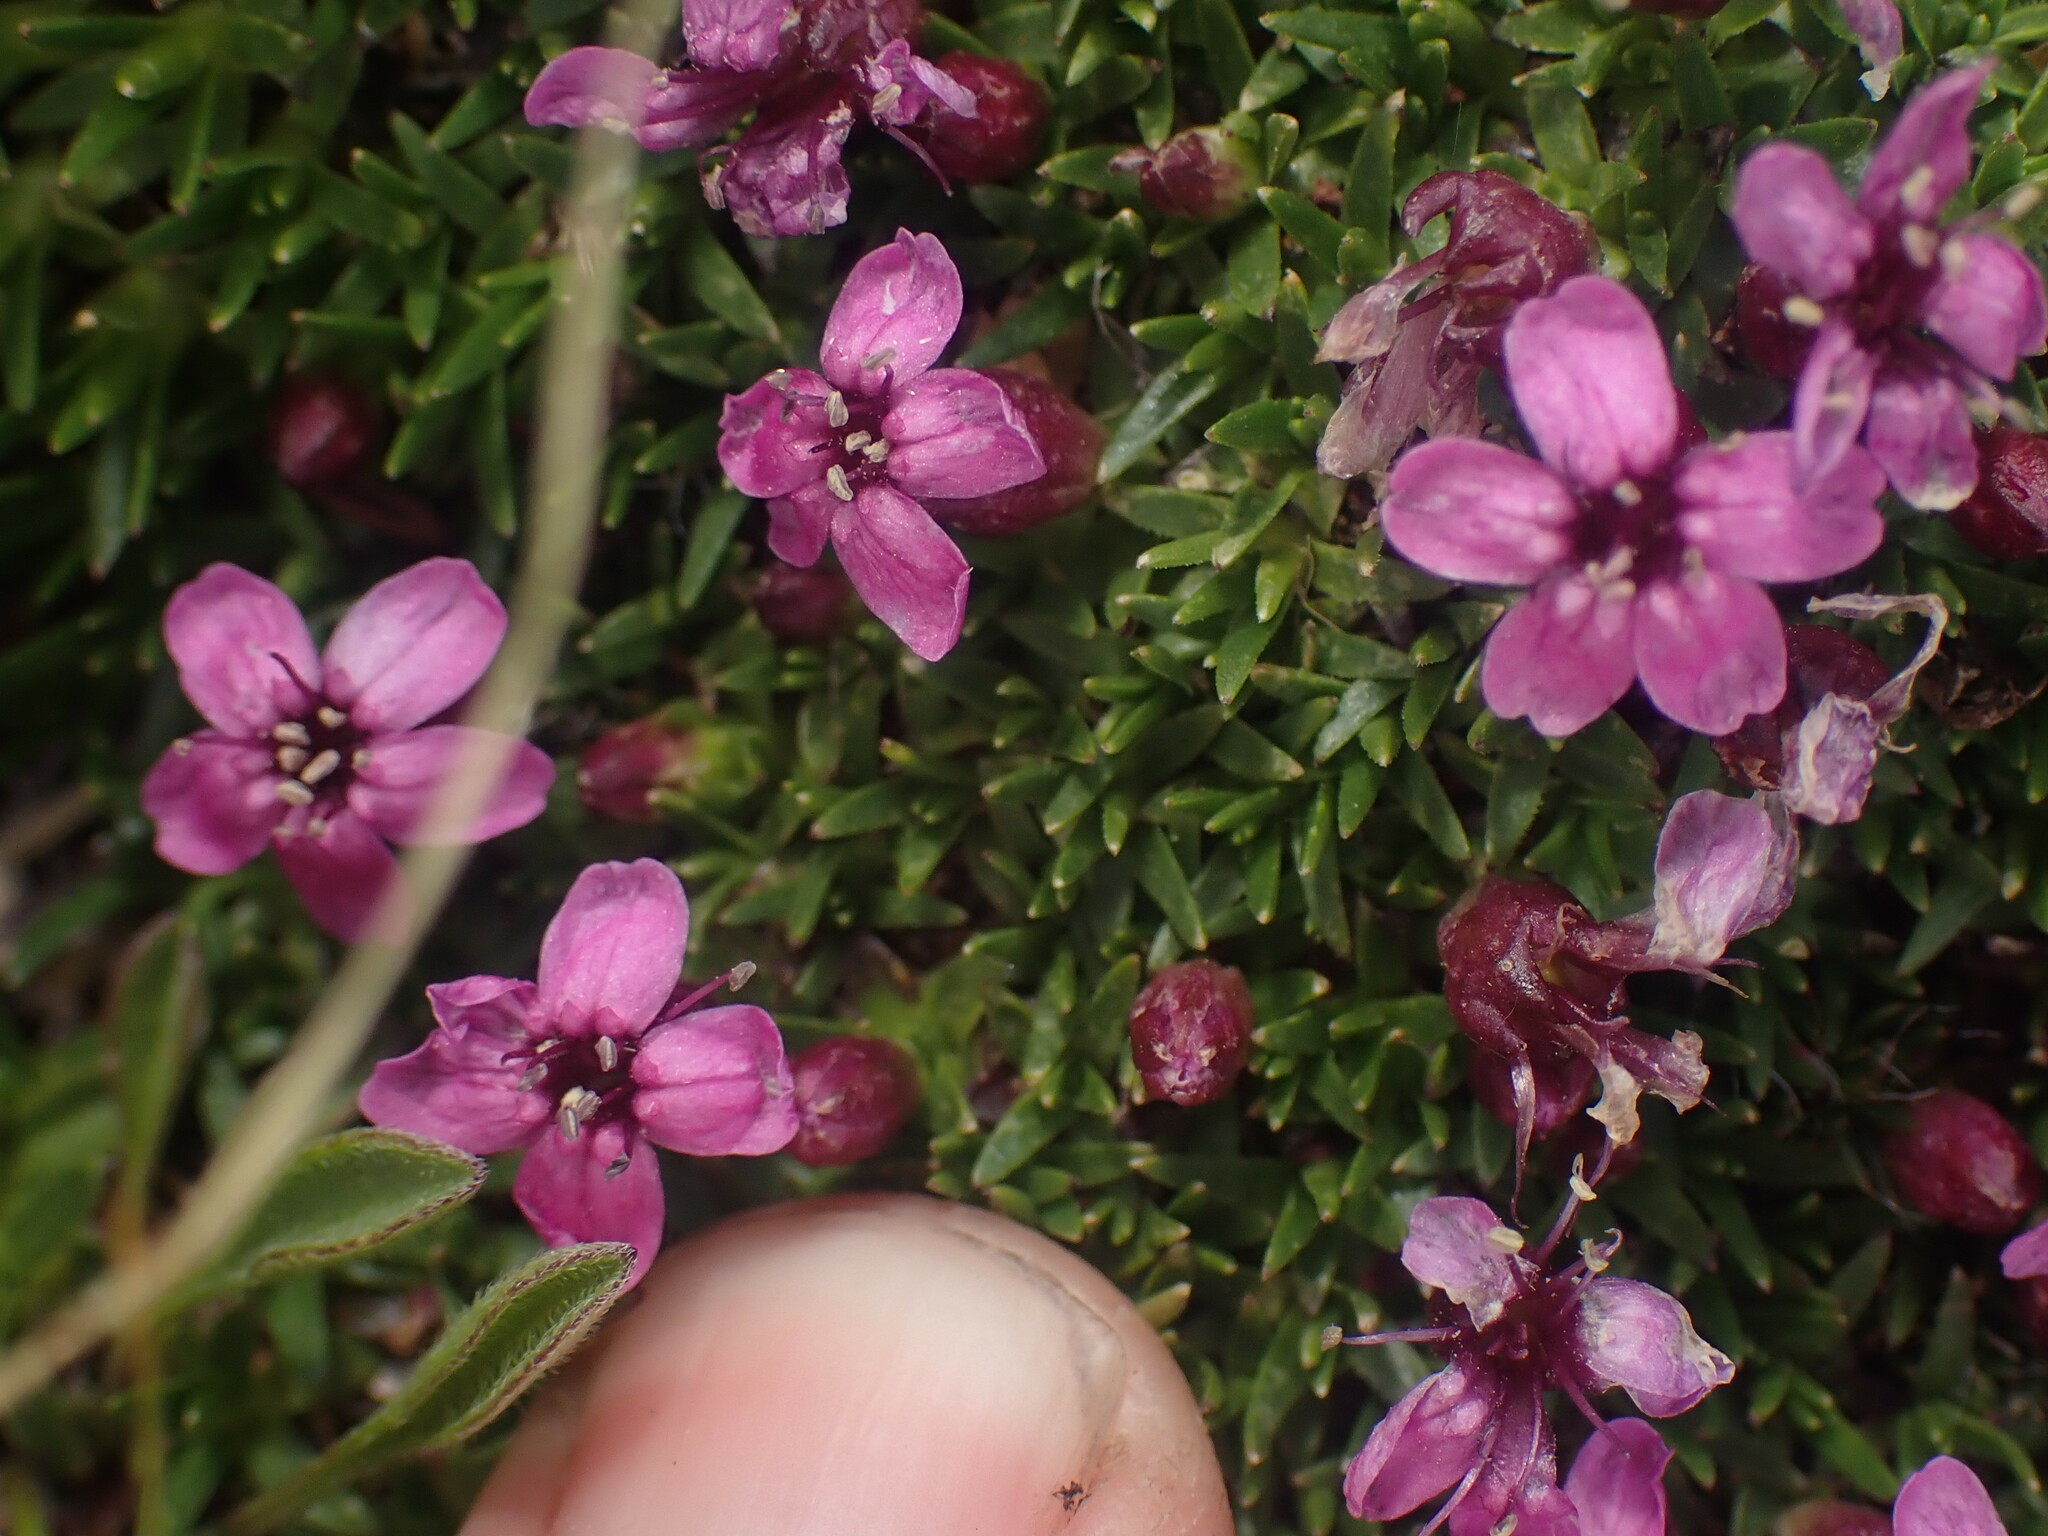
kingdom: Plantae
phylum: Tracheophyta
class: Magnoliopsida
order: Caryophyllales
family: Caryophyllaceae
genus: Silene
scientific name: Silene acaulis
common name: Moss campion
